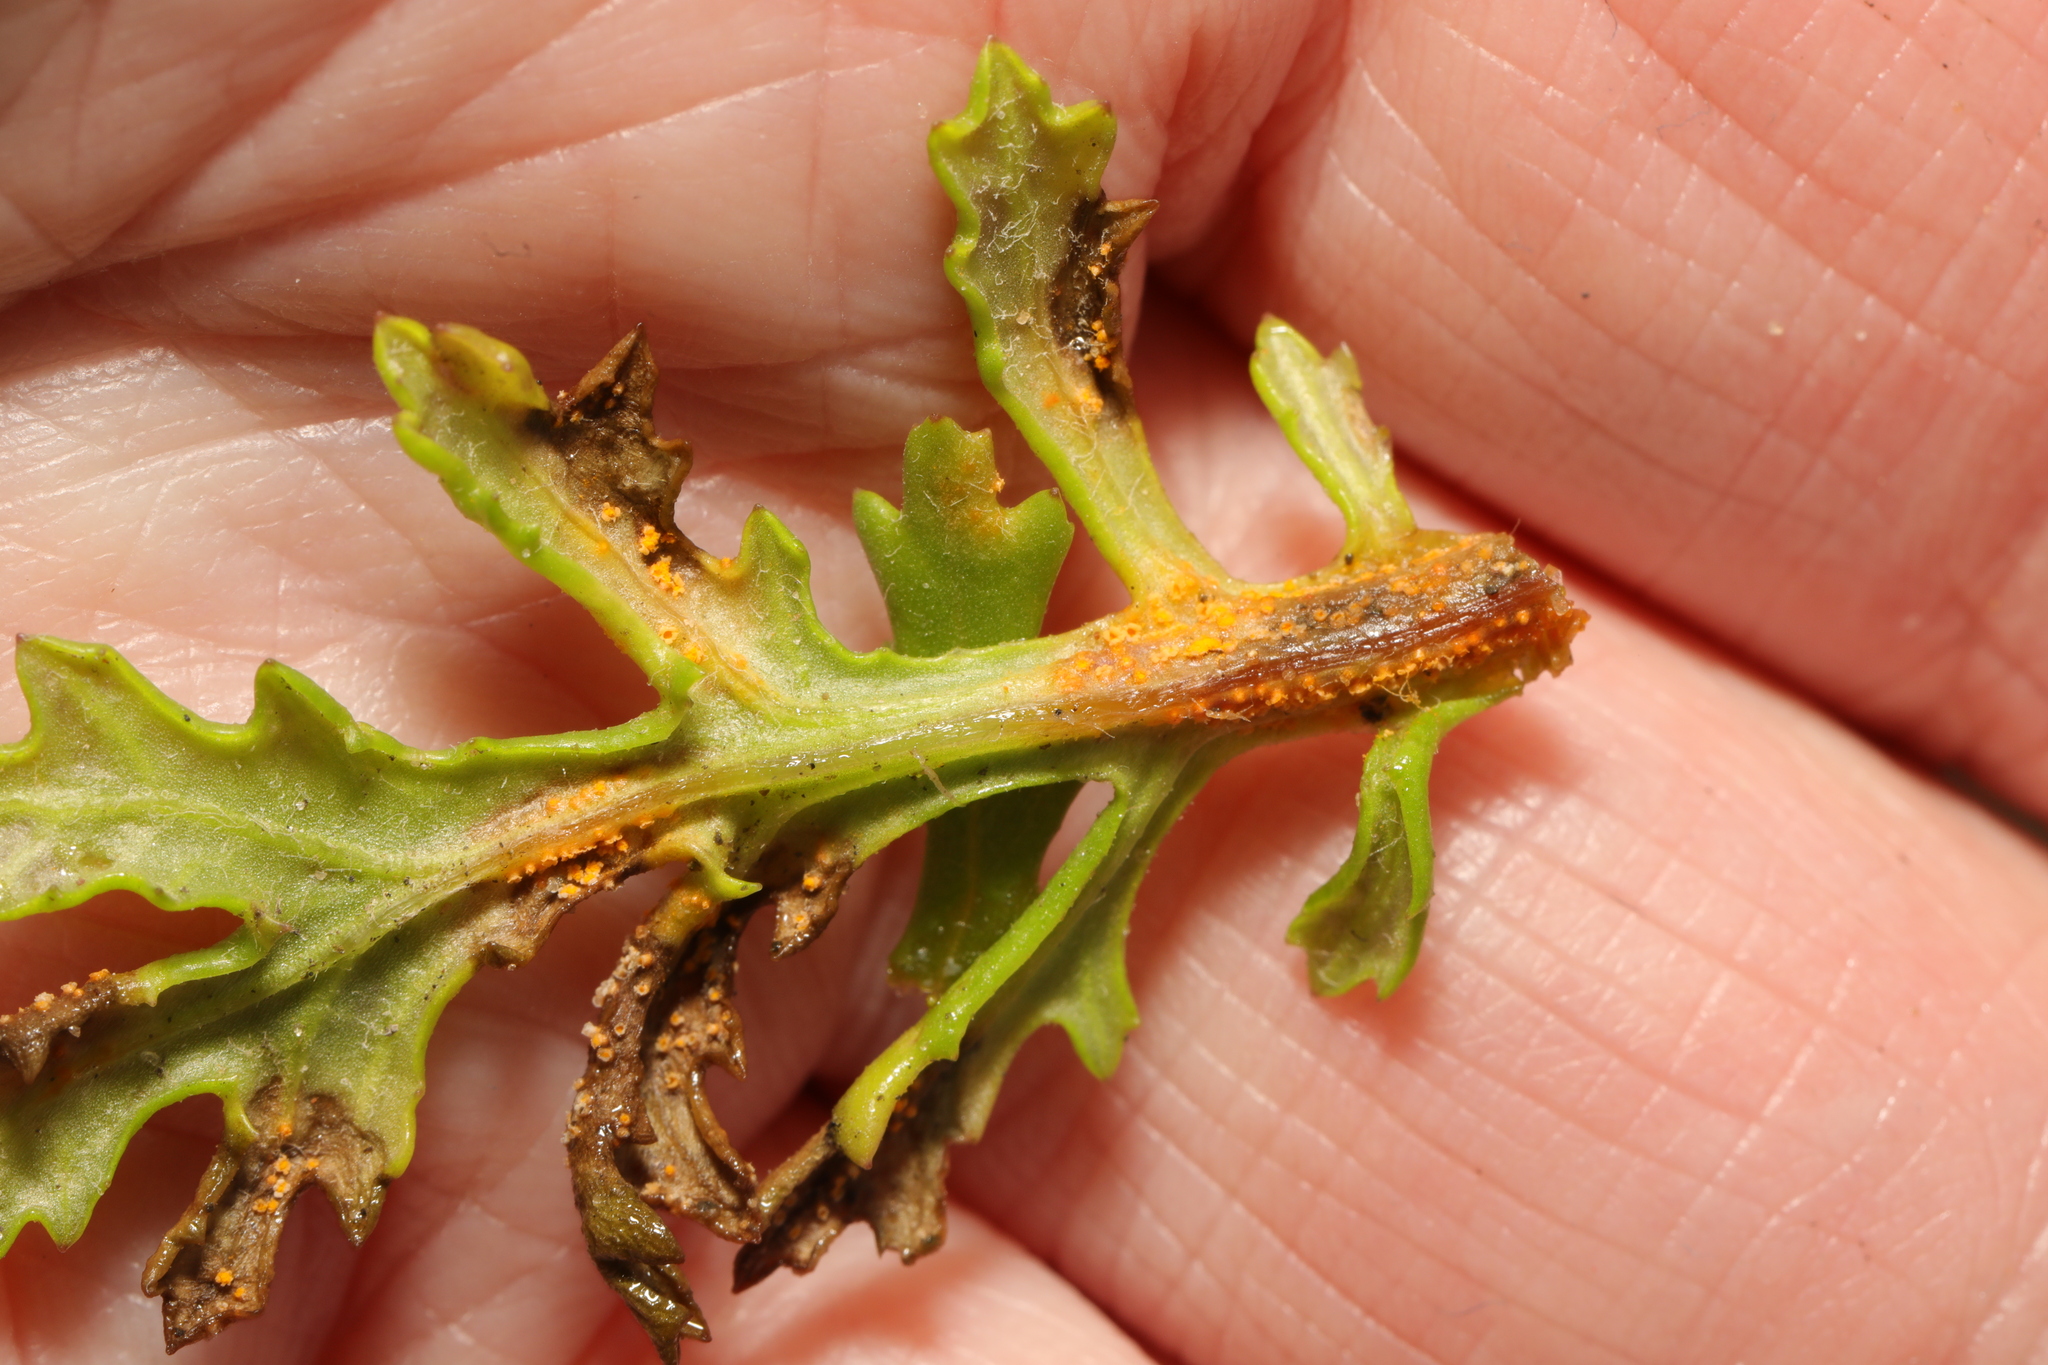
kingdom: Fungi
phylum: Basidiomycota
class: Pucciniomycetes
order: Pucciniales
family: Pucciniaceae
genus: Puccinia
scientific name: Puccinia lagenophorae
